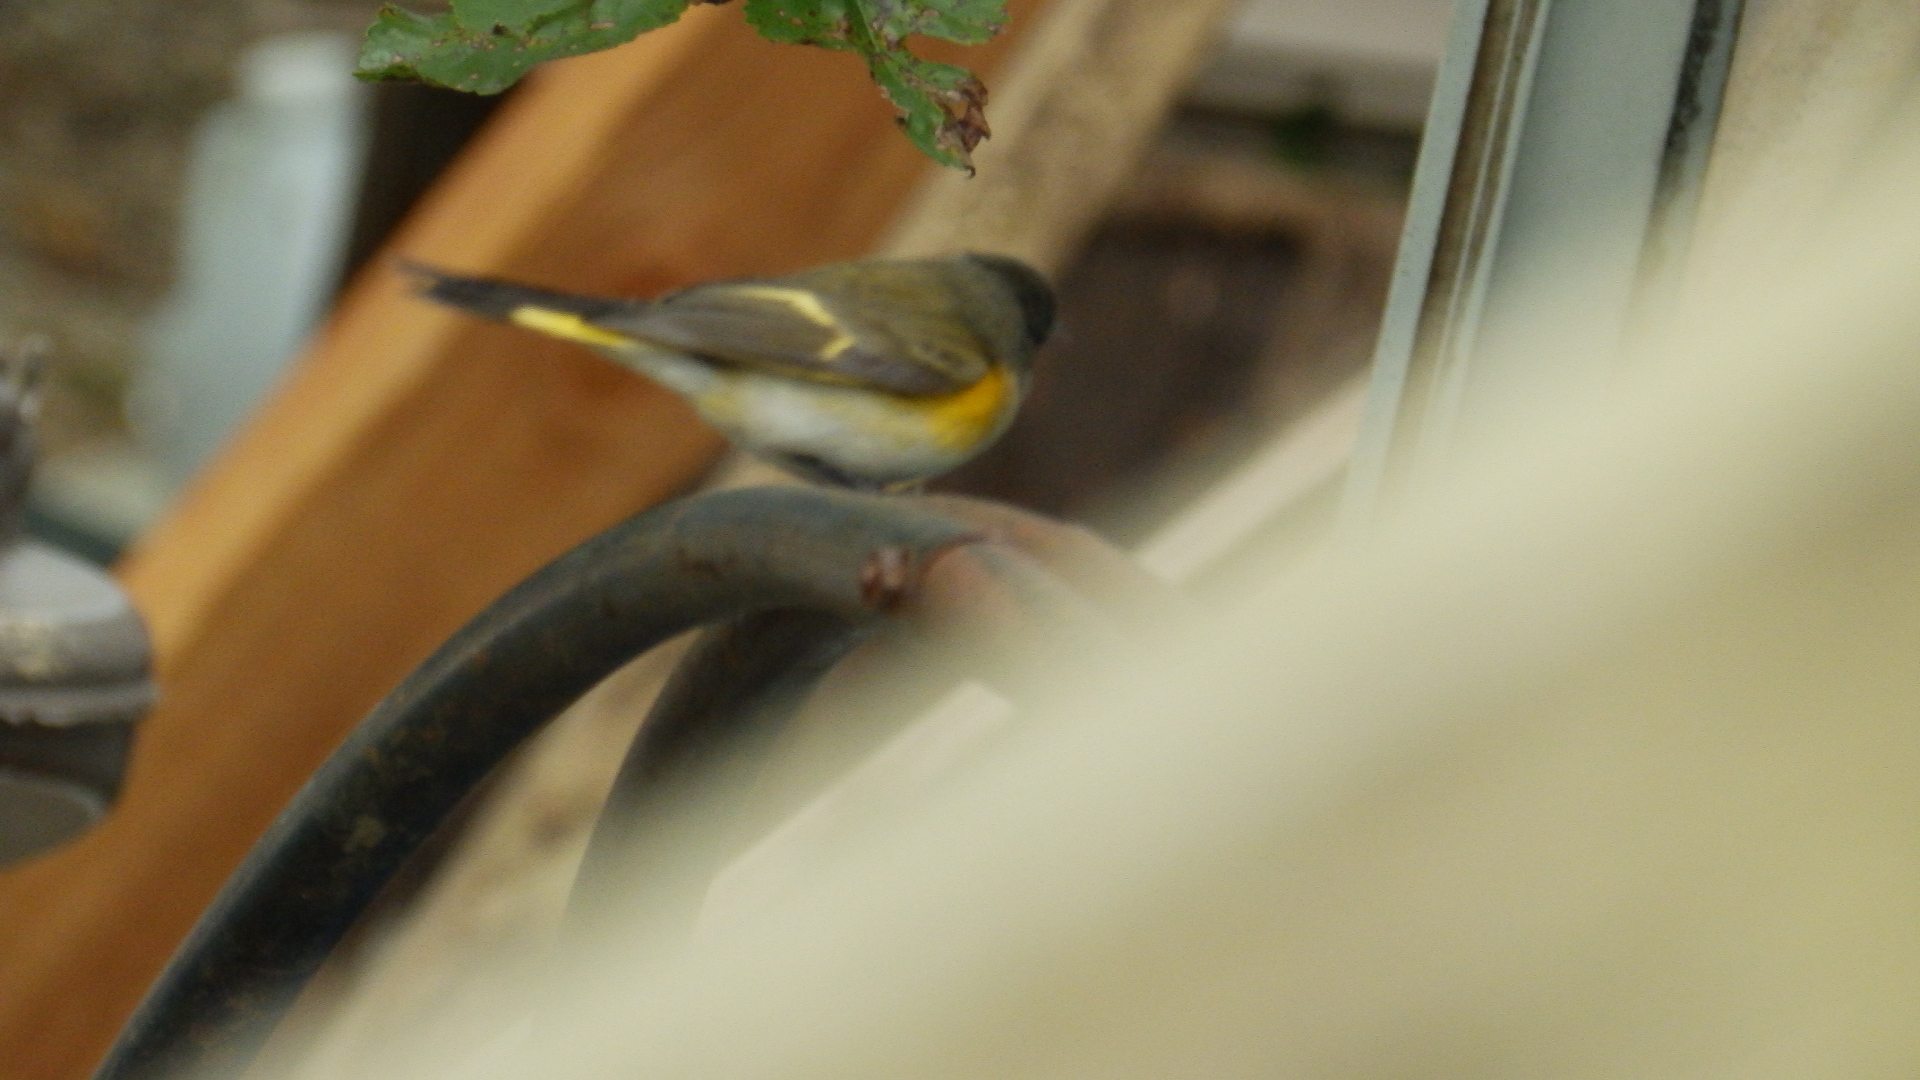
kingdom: Animalia
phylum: Chordata
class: Aves
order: Passeriformes
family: Parulidae
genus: Setophaga
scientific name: Setophaga ruticilla
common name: American redstart
